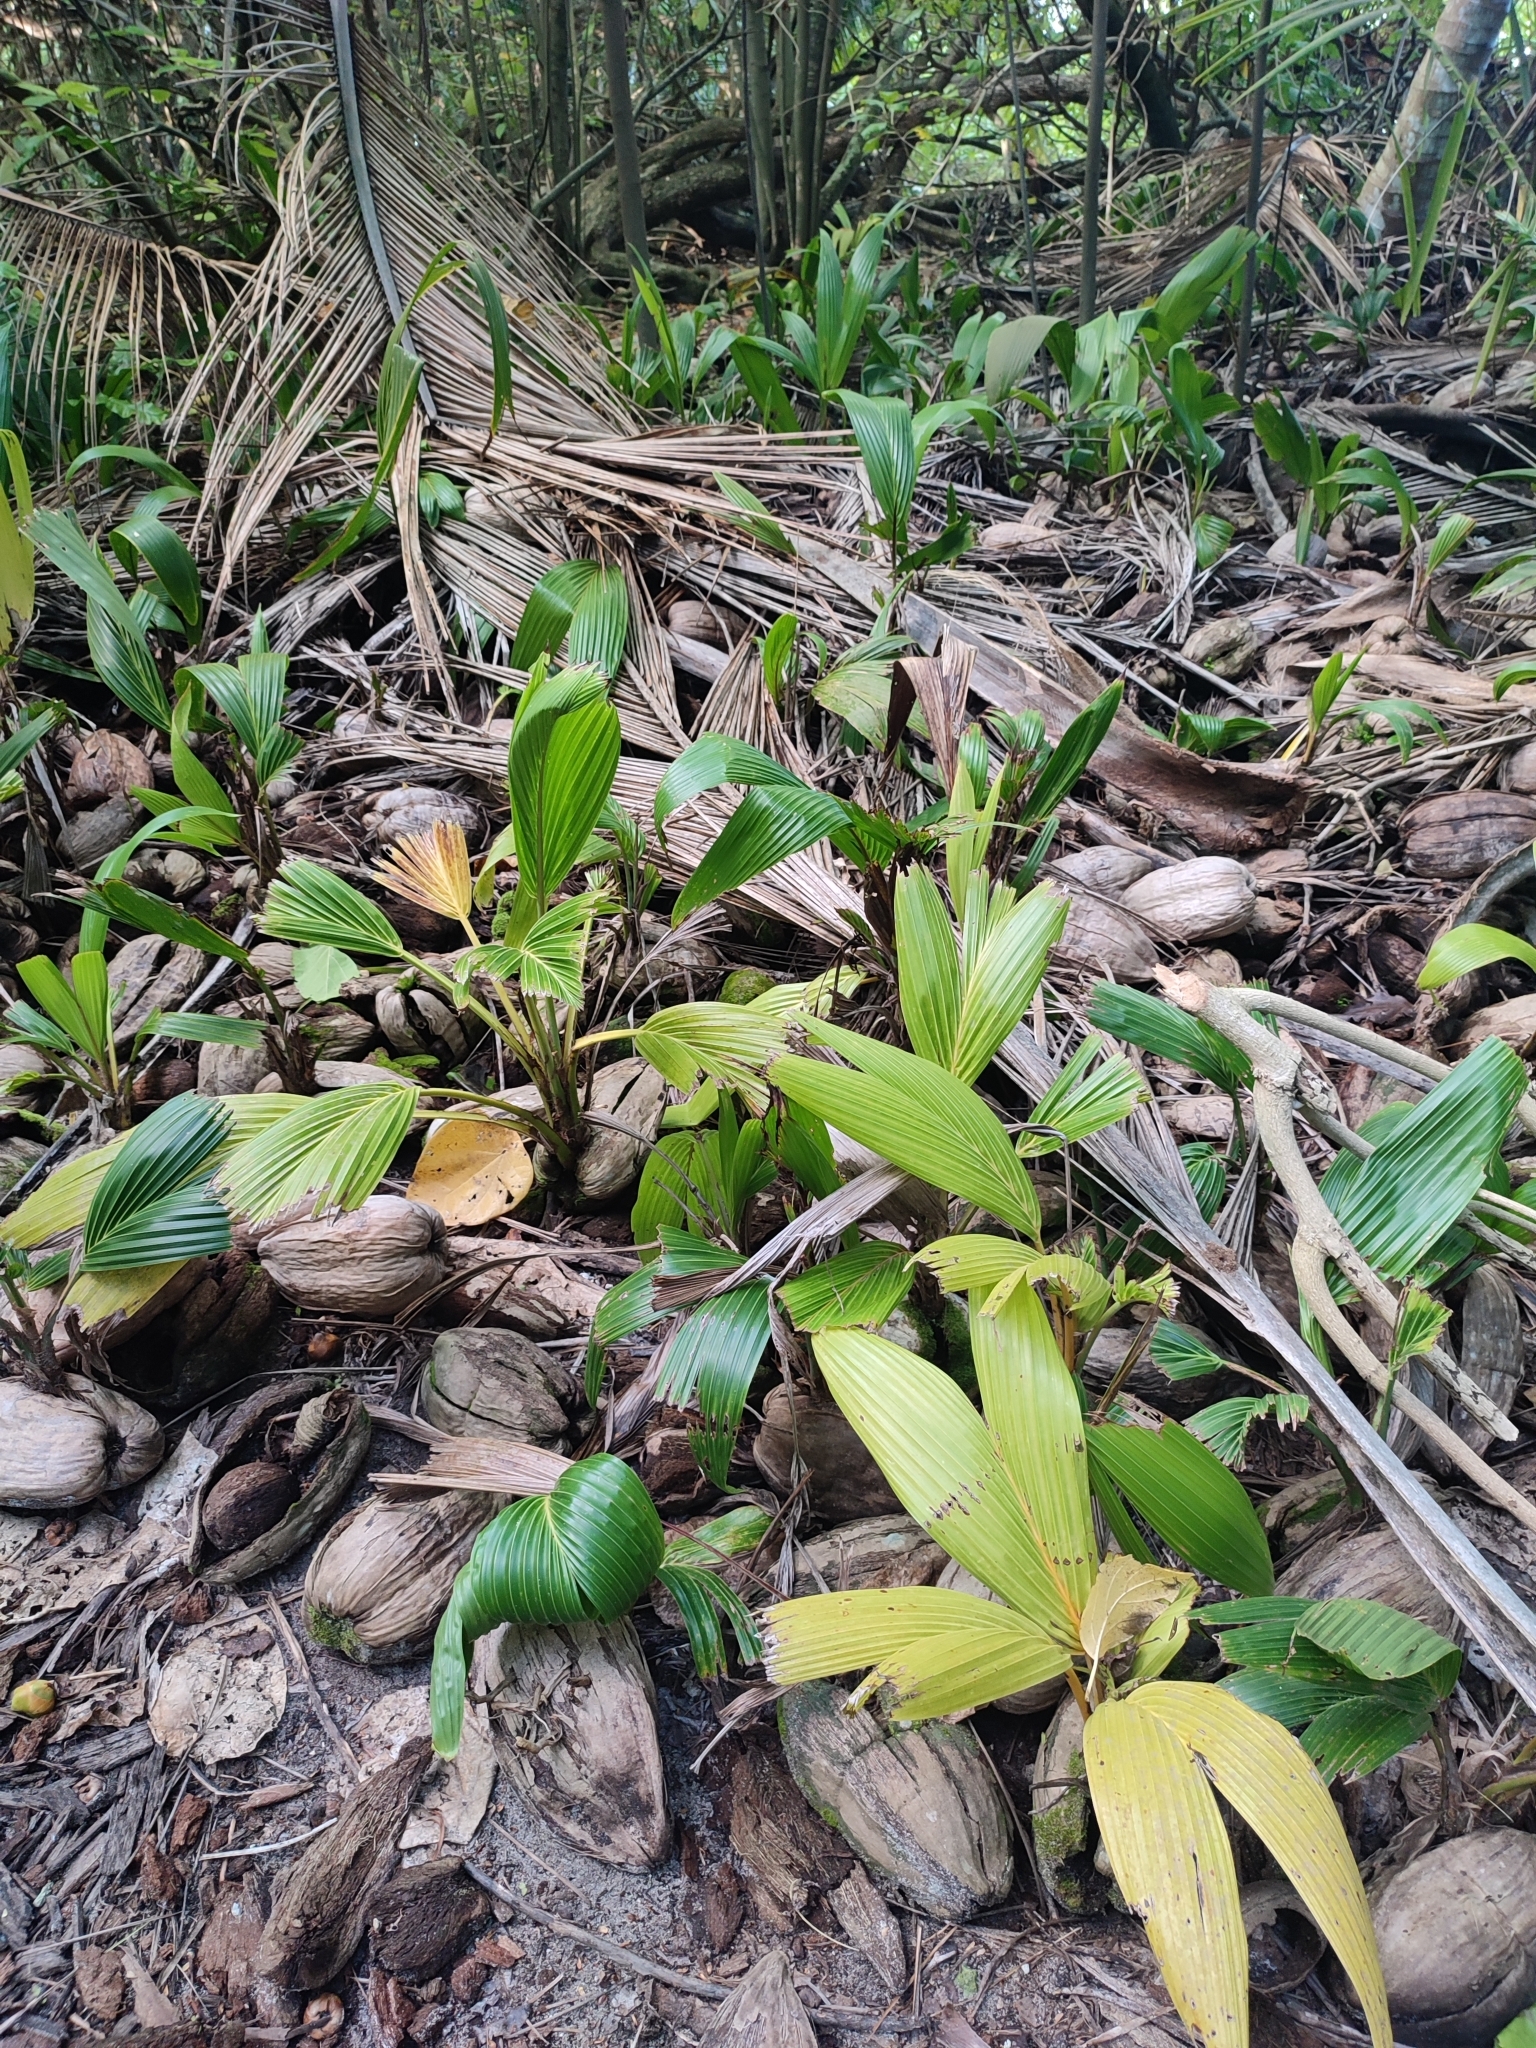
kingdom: Plantae
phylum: Tracheophyta
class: Liliopsida
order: Arecales
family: Arecaceae
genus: Cocos
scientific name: Cocos nucifera
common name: Coconut palm
